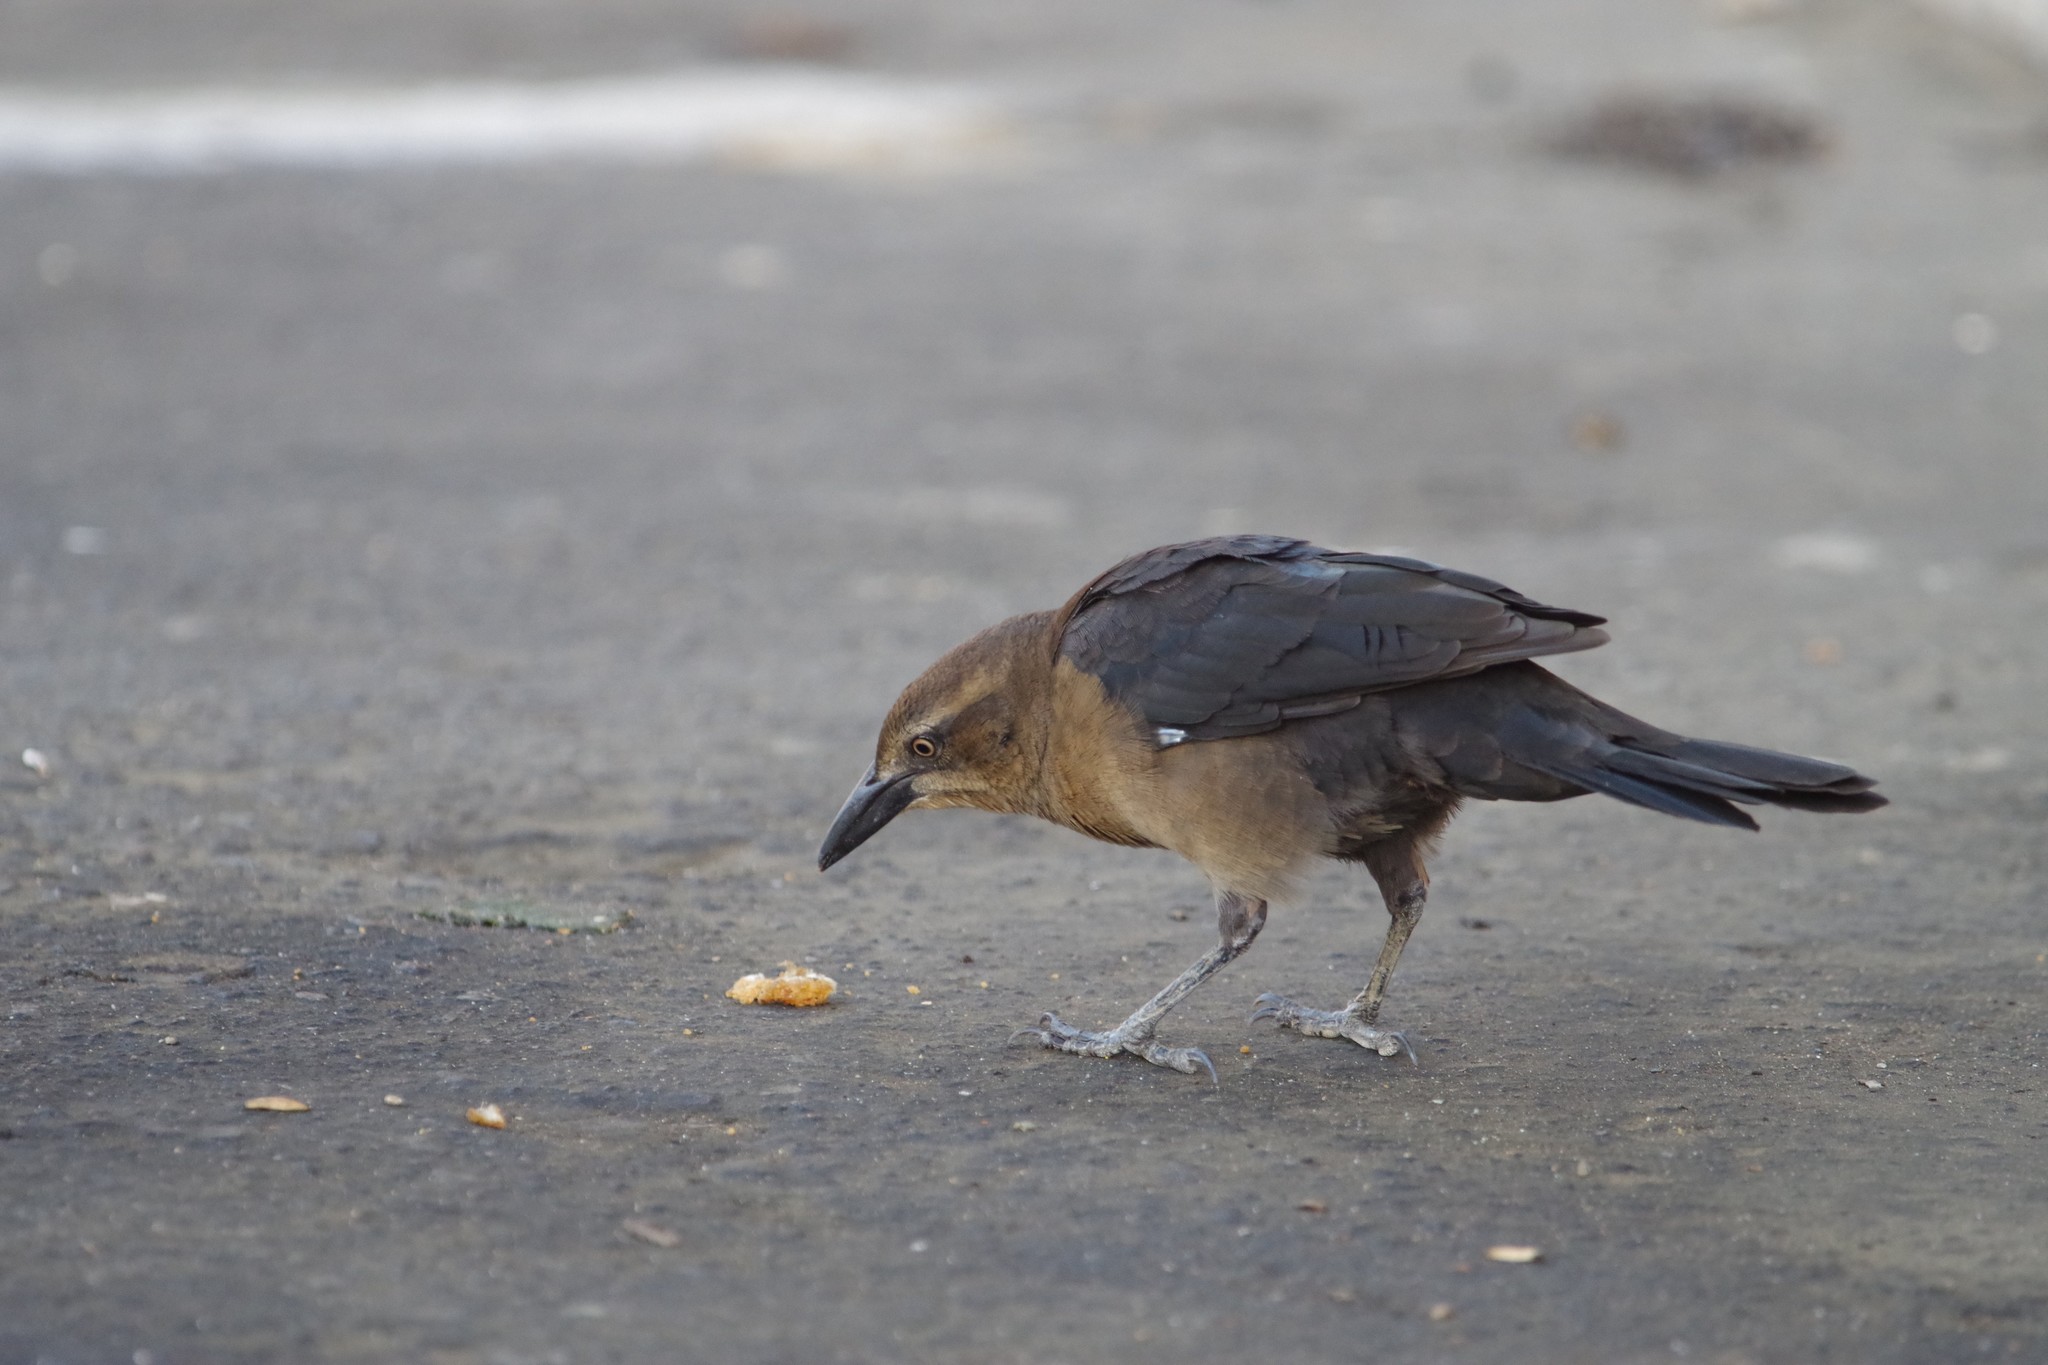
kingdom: Animalia
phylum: Chordata
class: Aves
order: Passeriformes
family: Icteridae
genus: Quiscalus
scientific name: Quiscalus mexicanus
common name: Great-tailed grackle
